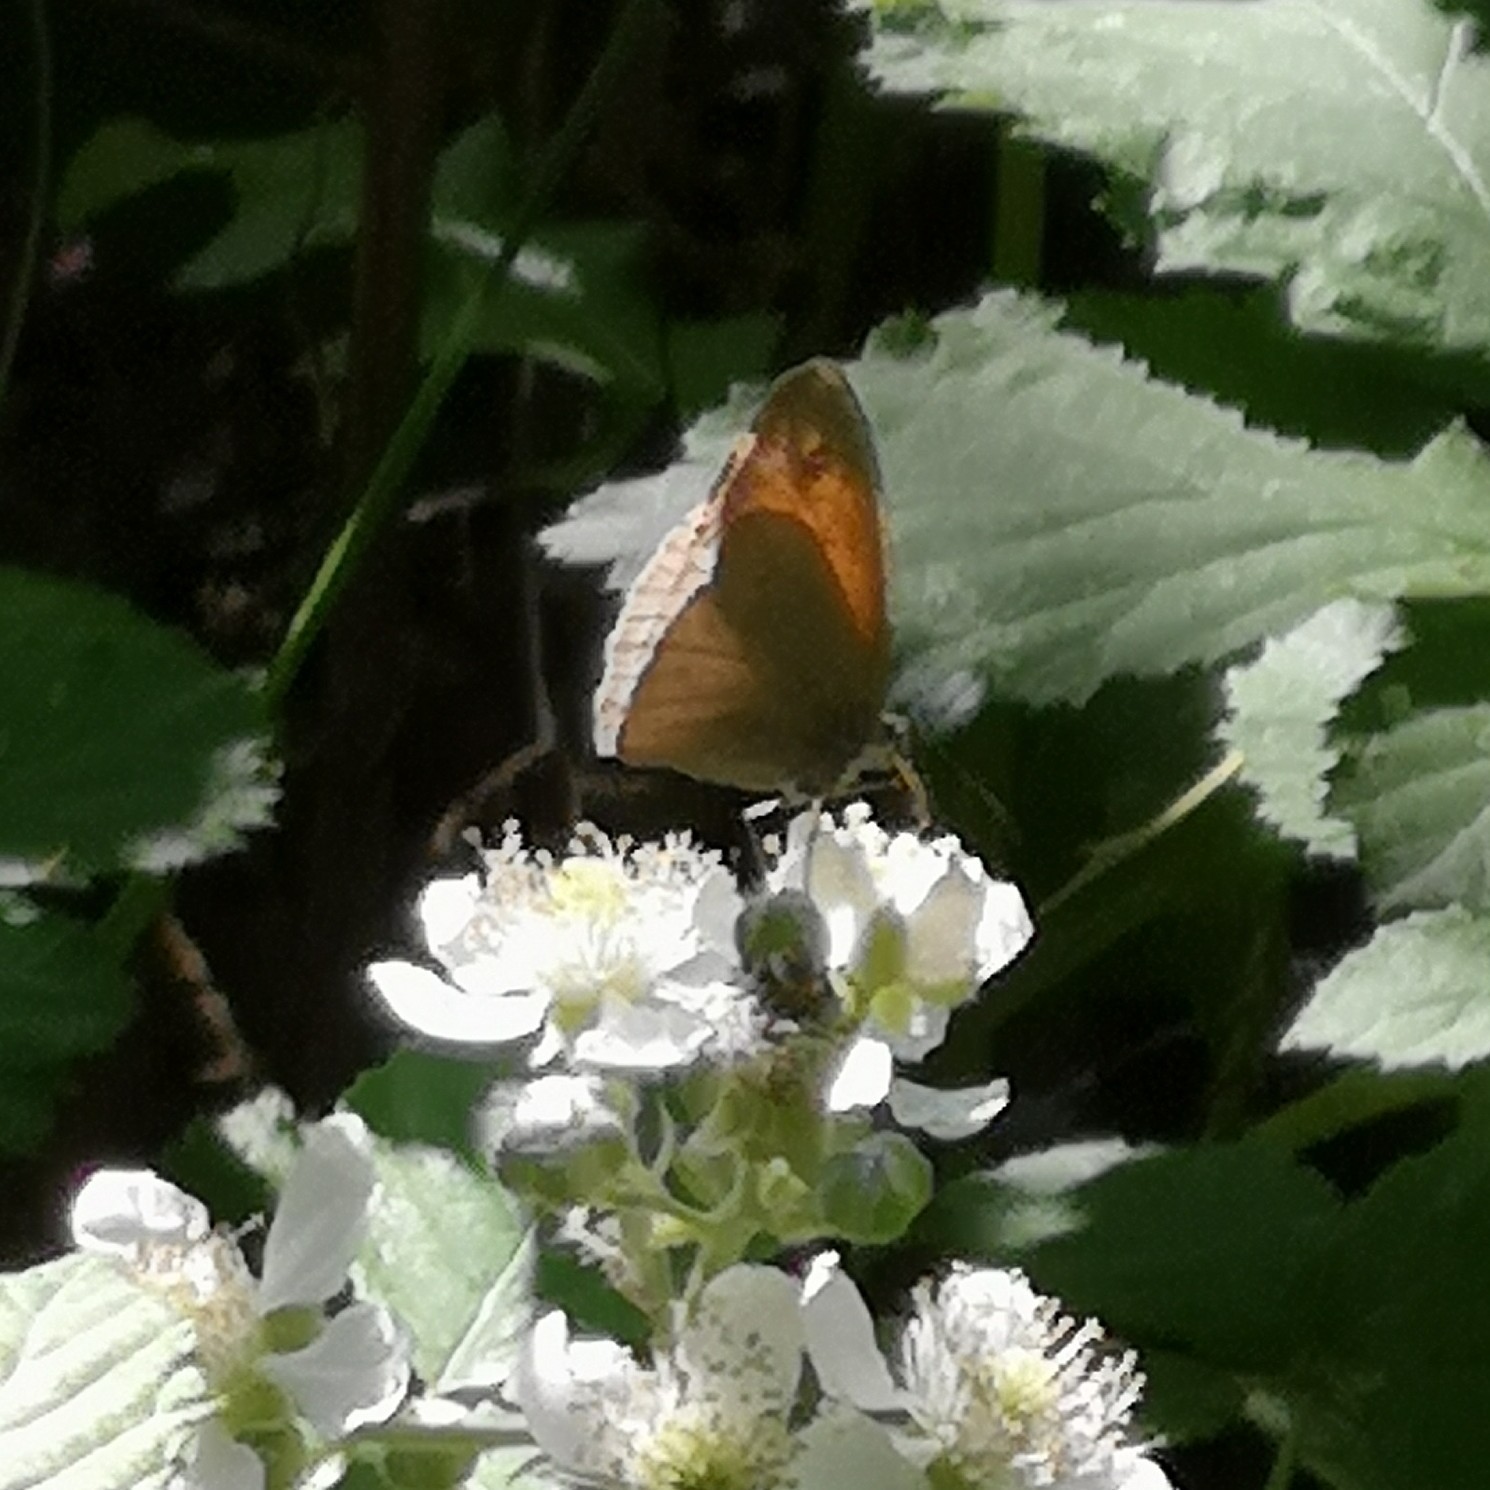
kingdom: Animalia
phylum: Arthropoda
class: Insecta
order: Lepidoptera
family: Nymphalidae
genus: Maniola
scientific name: Maniola jurtina
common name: Meadow brown
